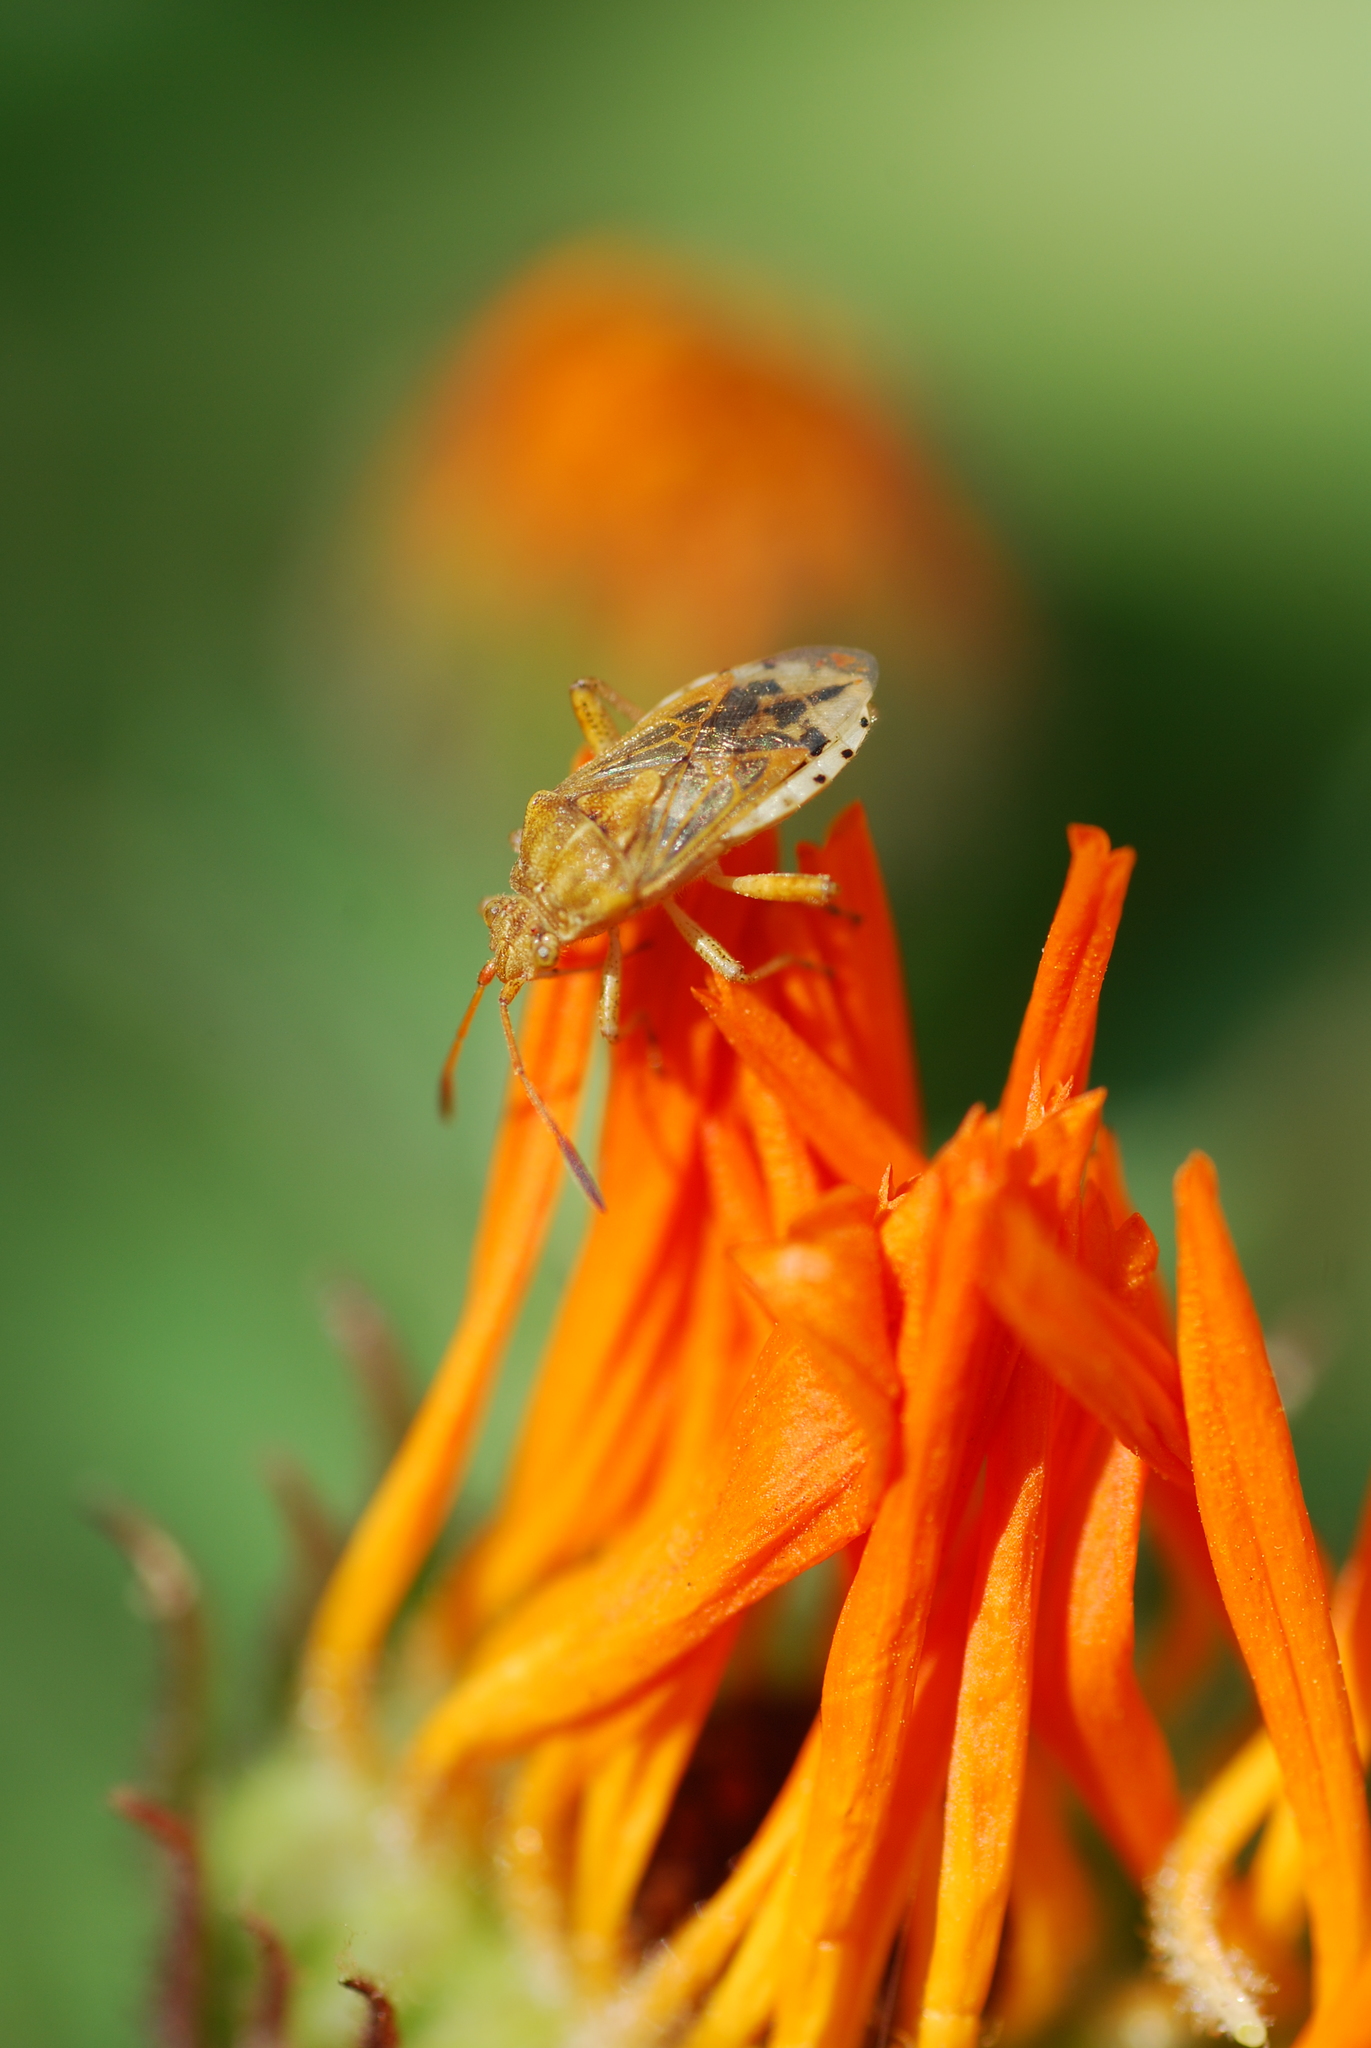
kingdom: Animalia
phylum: Arthropoda
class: Insecta
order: Hemiptera
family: Rhopalidae
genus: Stictopleurus
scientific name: Stictopleurus abutilon
